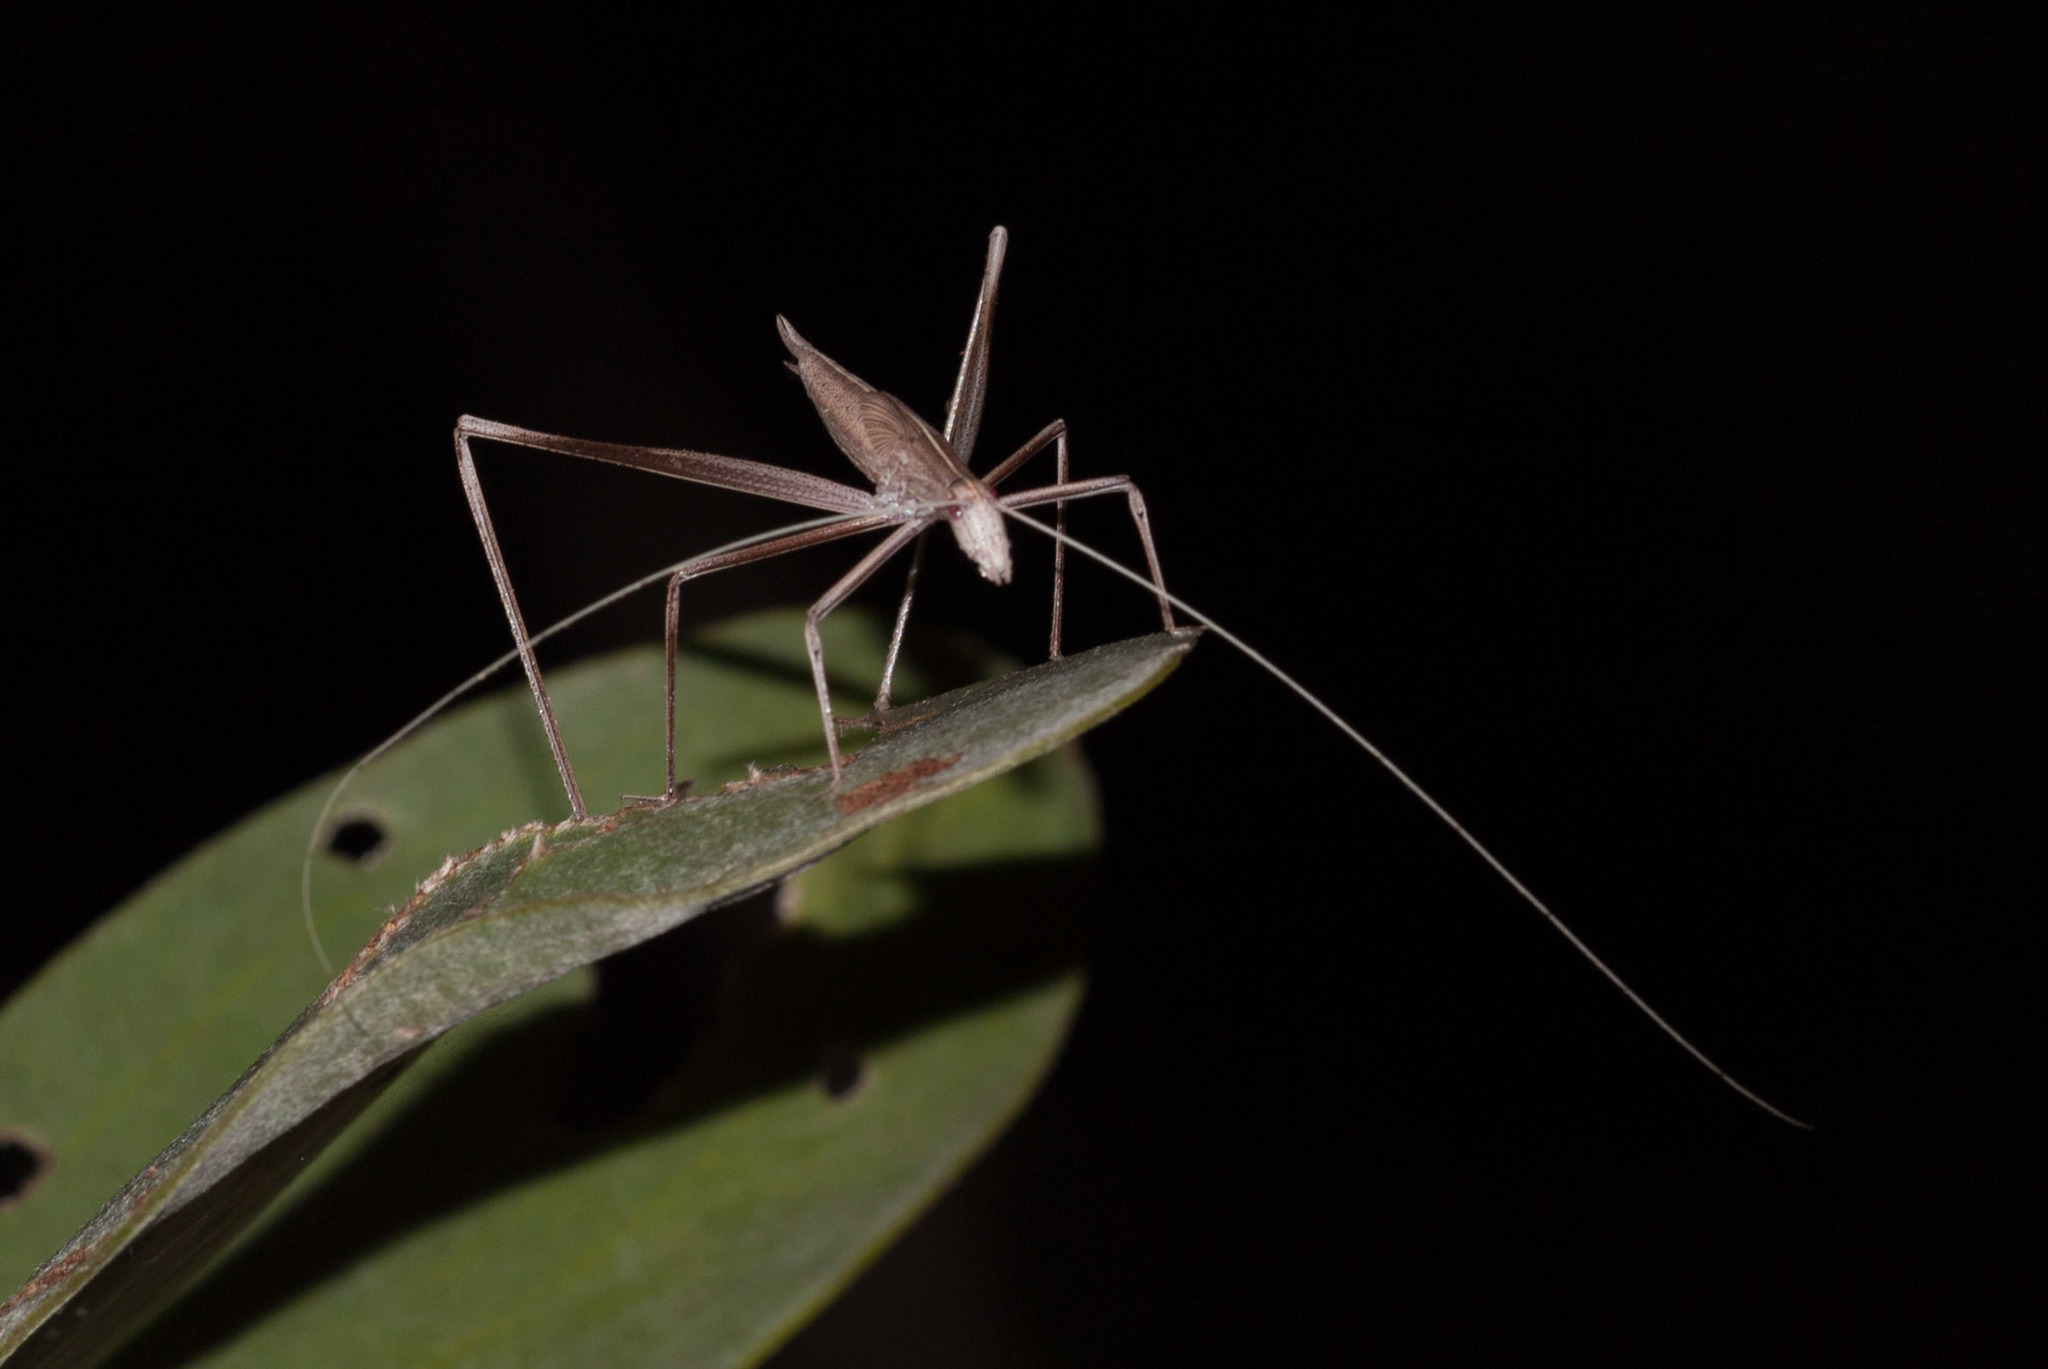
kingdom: Animalia
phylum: Arthropoda
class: Insecta
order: Orthoptera
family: Tettigoniidae
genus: Ducetia
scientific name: Ducetia antipoda
